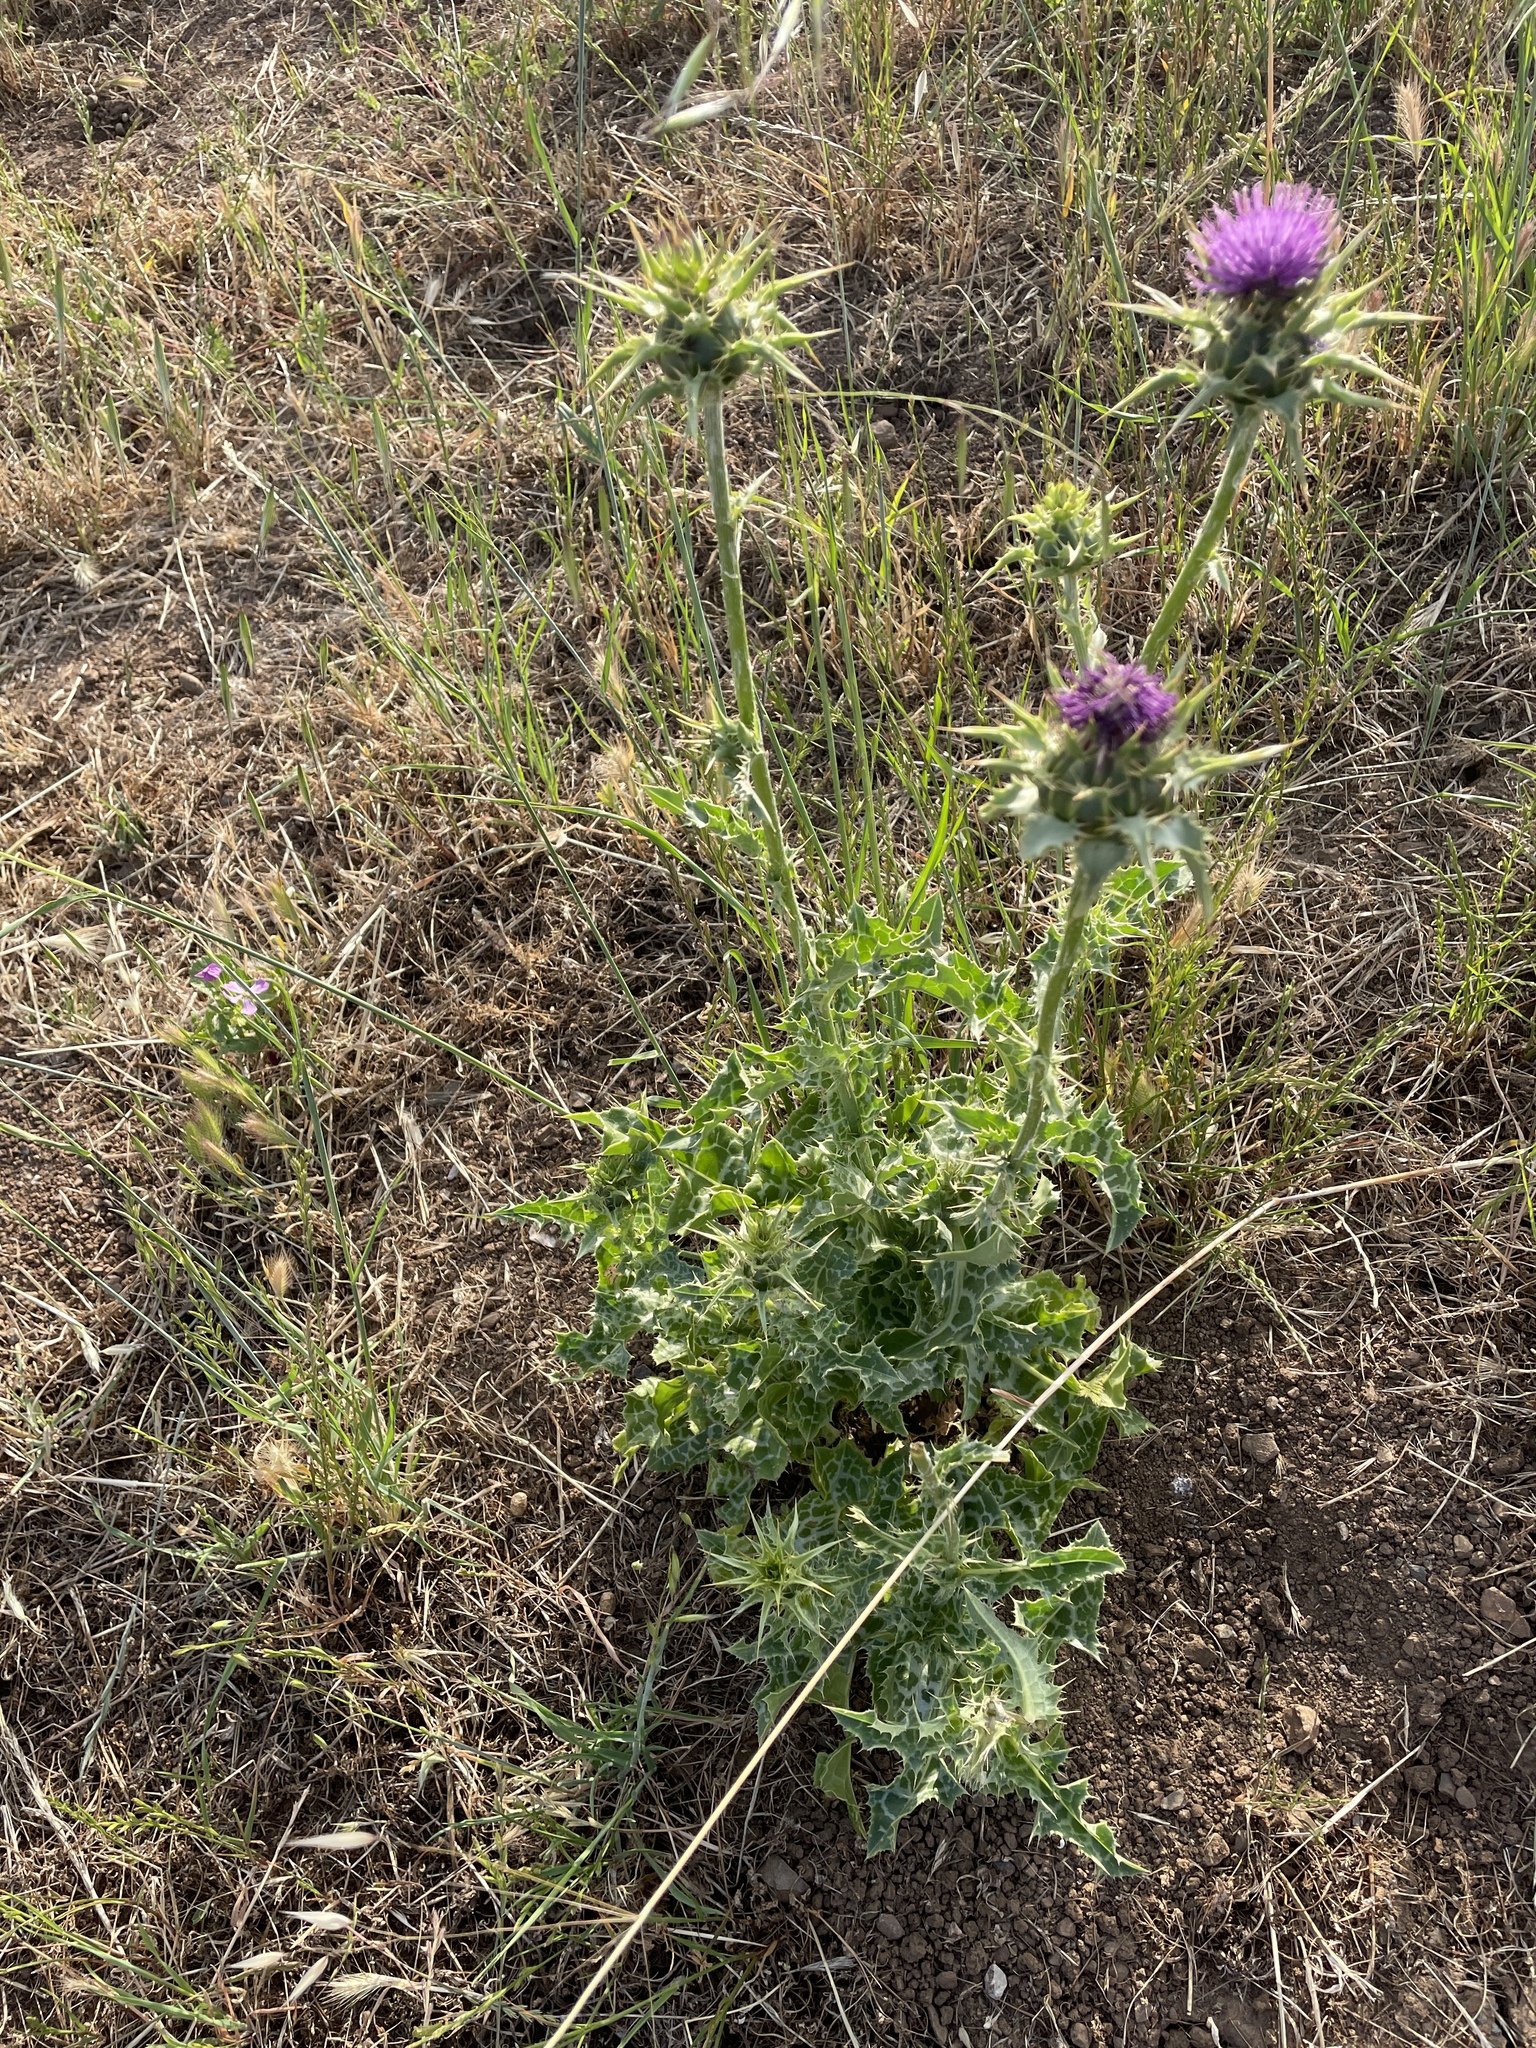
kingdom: Plantae
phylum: Tracheophyta
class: Magnoliopsida
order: Asterales
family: Asteraceae
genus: Silybum
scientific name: Silybum marianum
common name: Milk thistle
